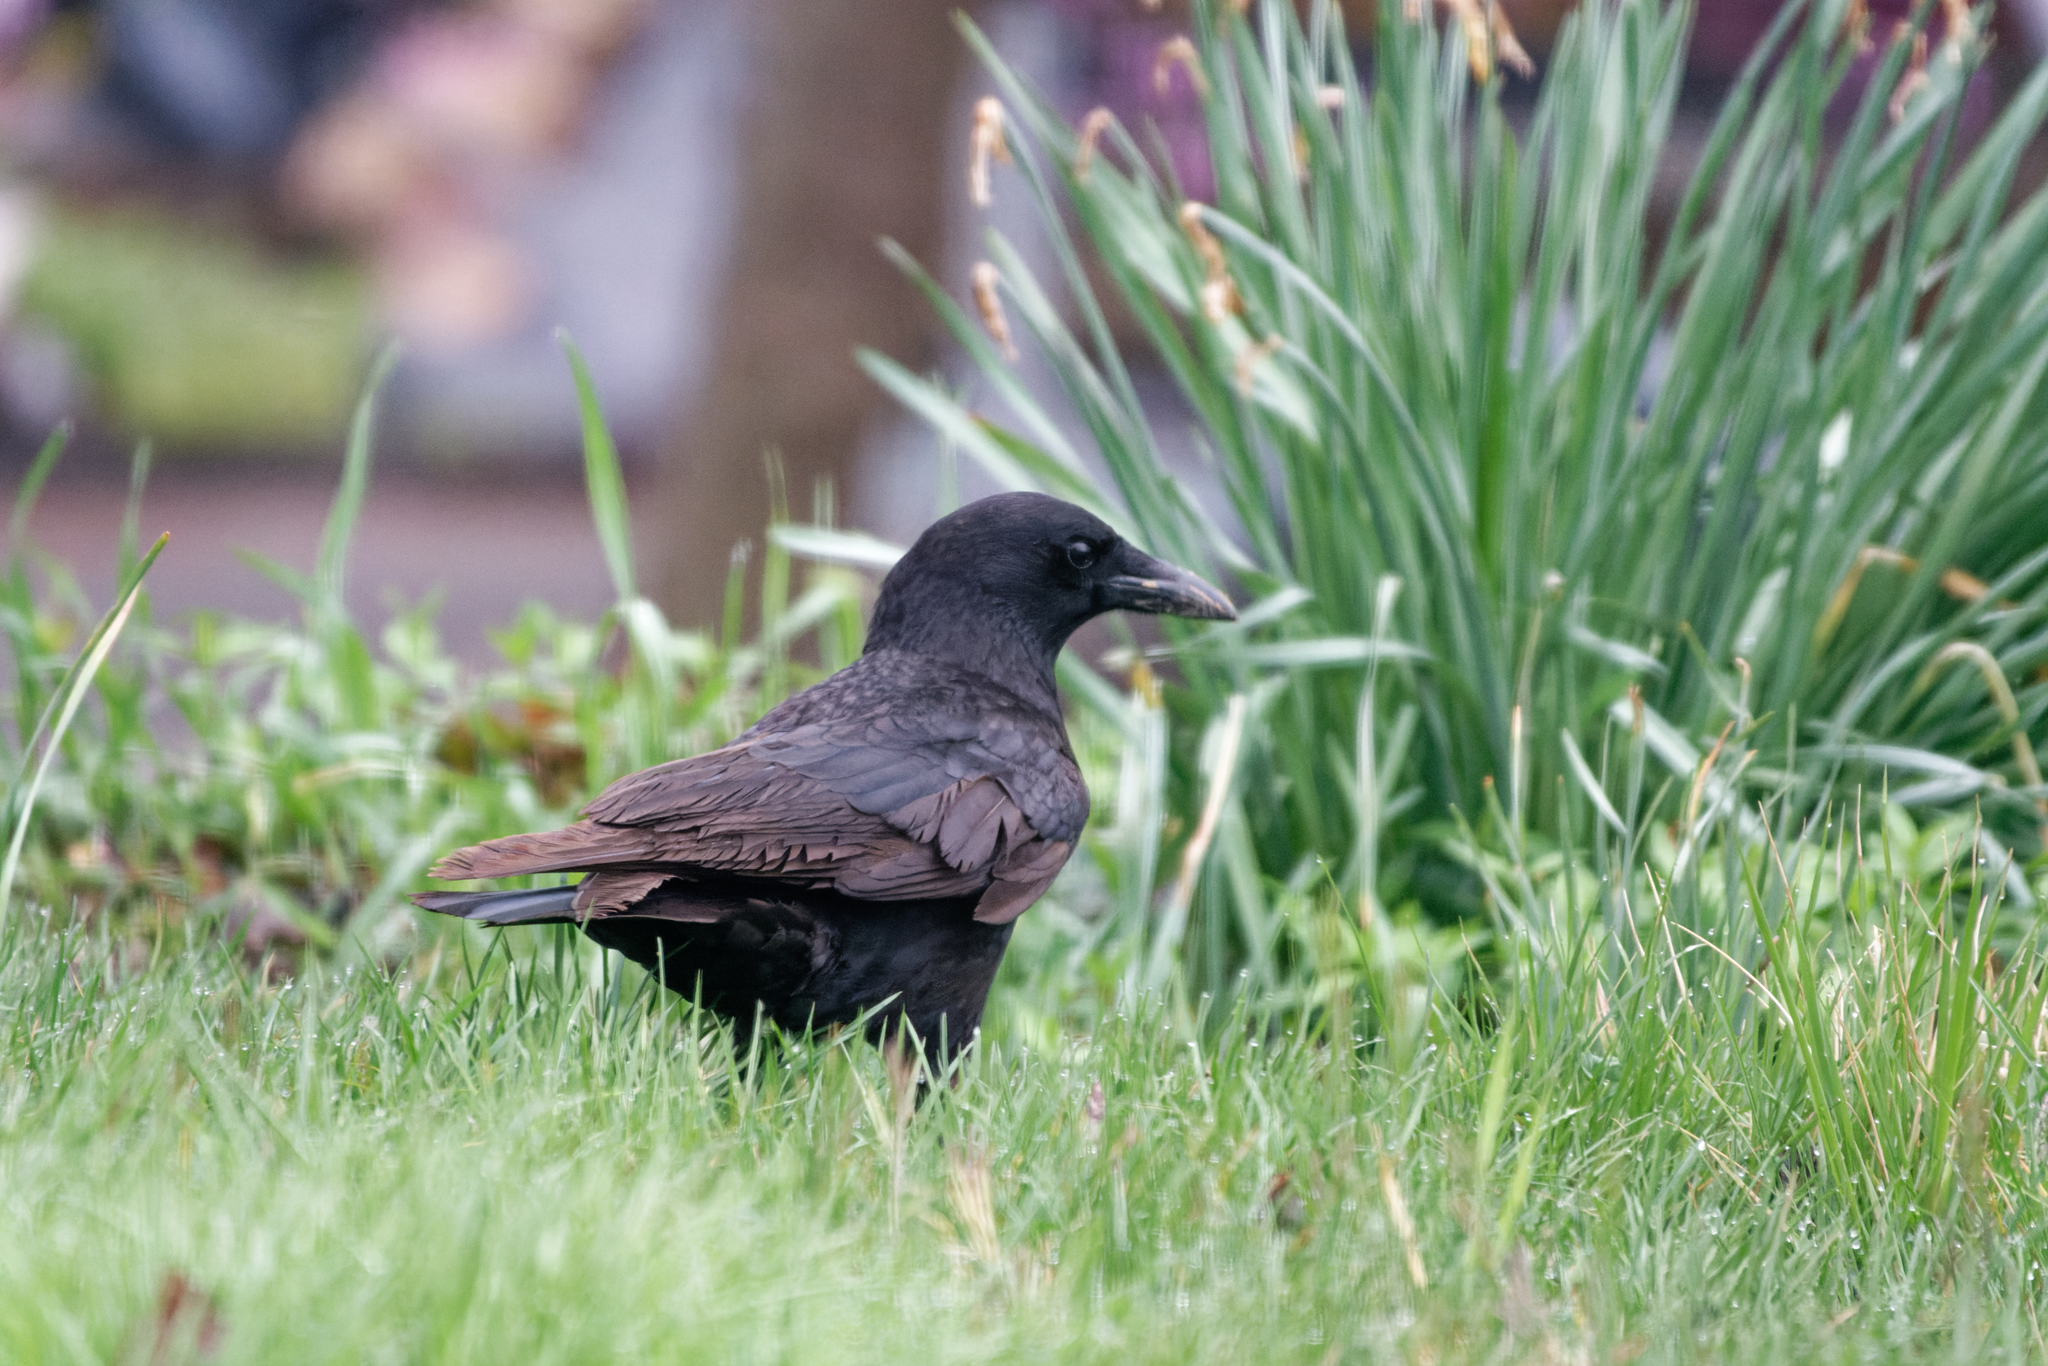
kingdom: Animalia
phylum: Chordata
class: Aves
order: Passeriformes
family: Corvidae
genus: Corvus
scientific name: Corvus brachyrhynchos
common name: American crow
